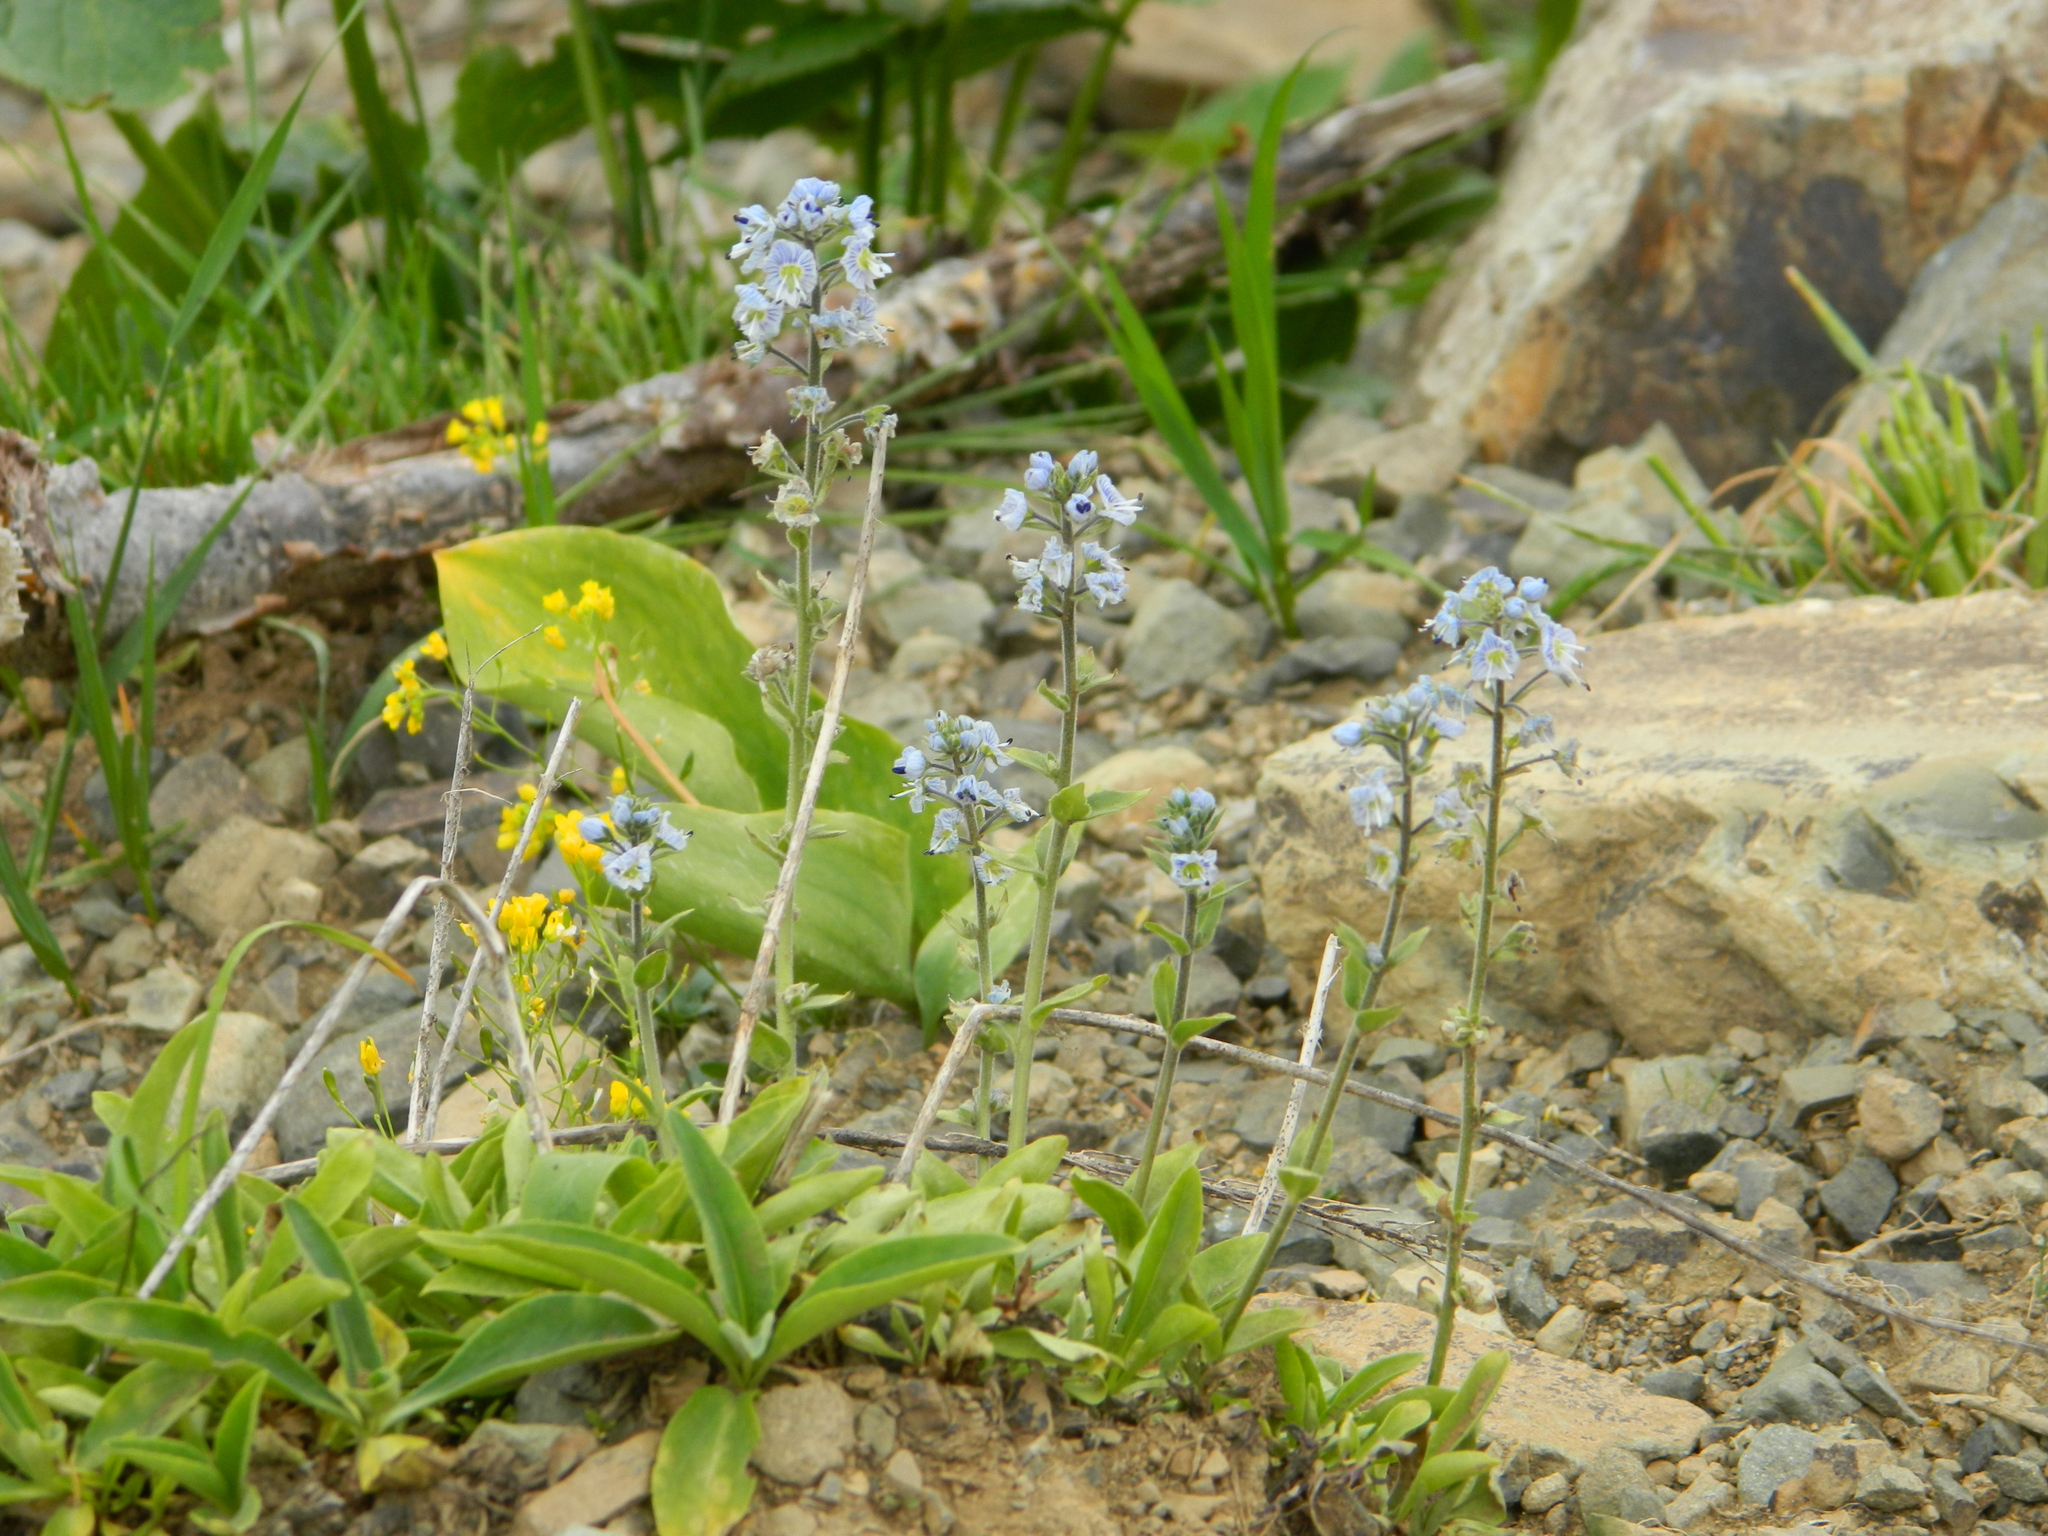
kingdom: Plantae
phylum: Tracheophyta
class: Magnoliopsida
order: Lamiales
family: Plantaginaceae
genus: Veronica
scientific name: Veronica gentianoides
